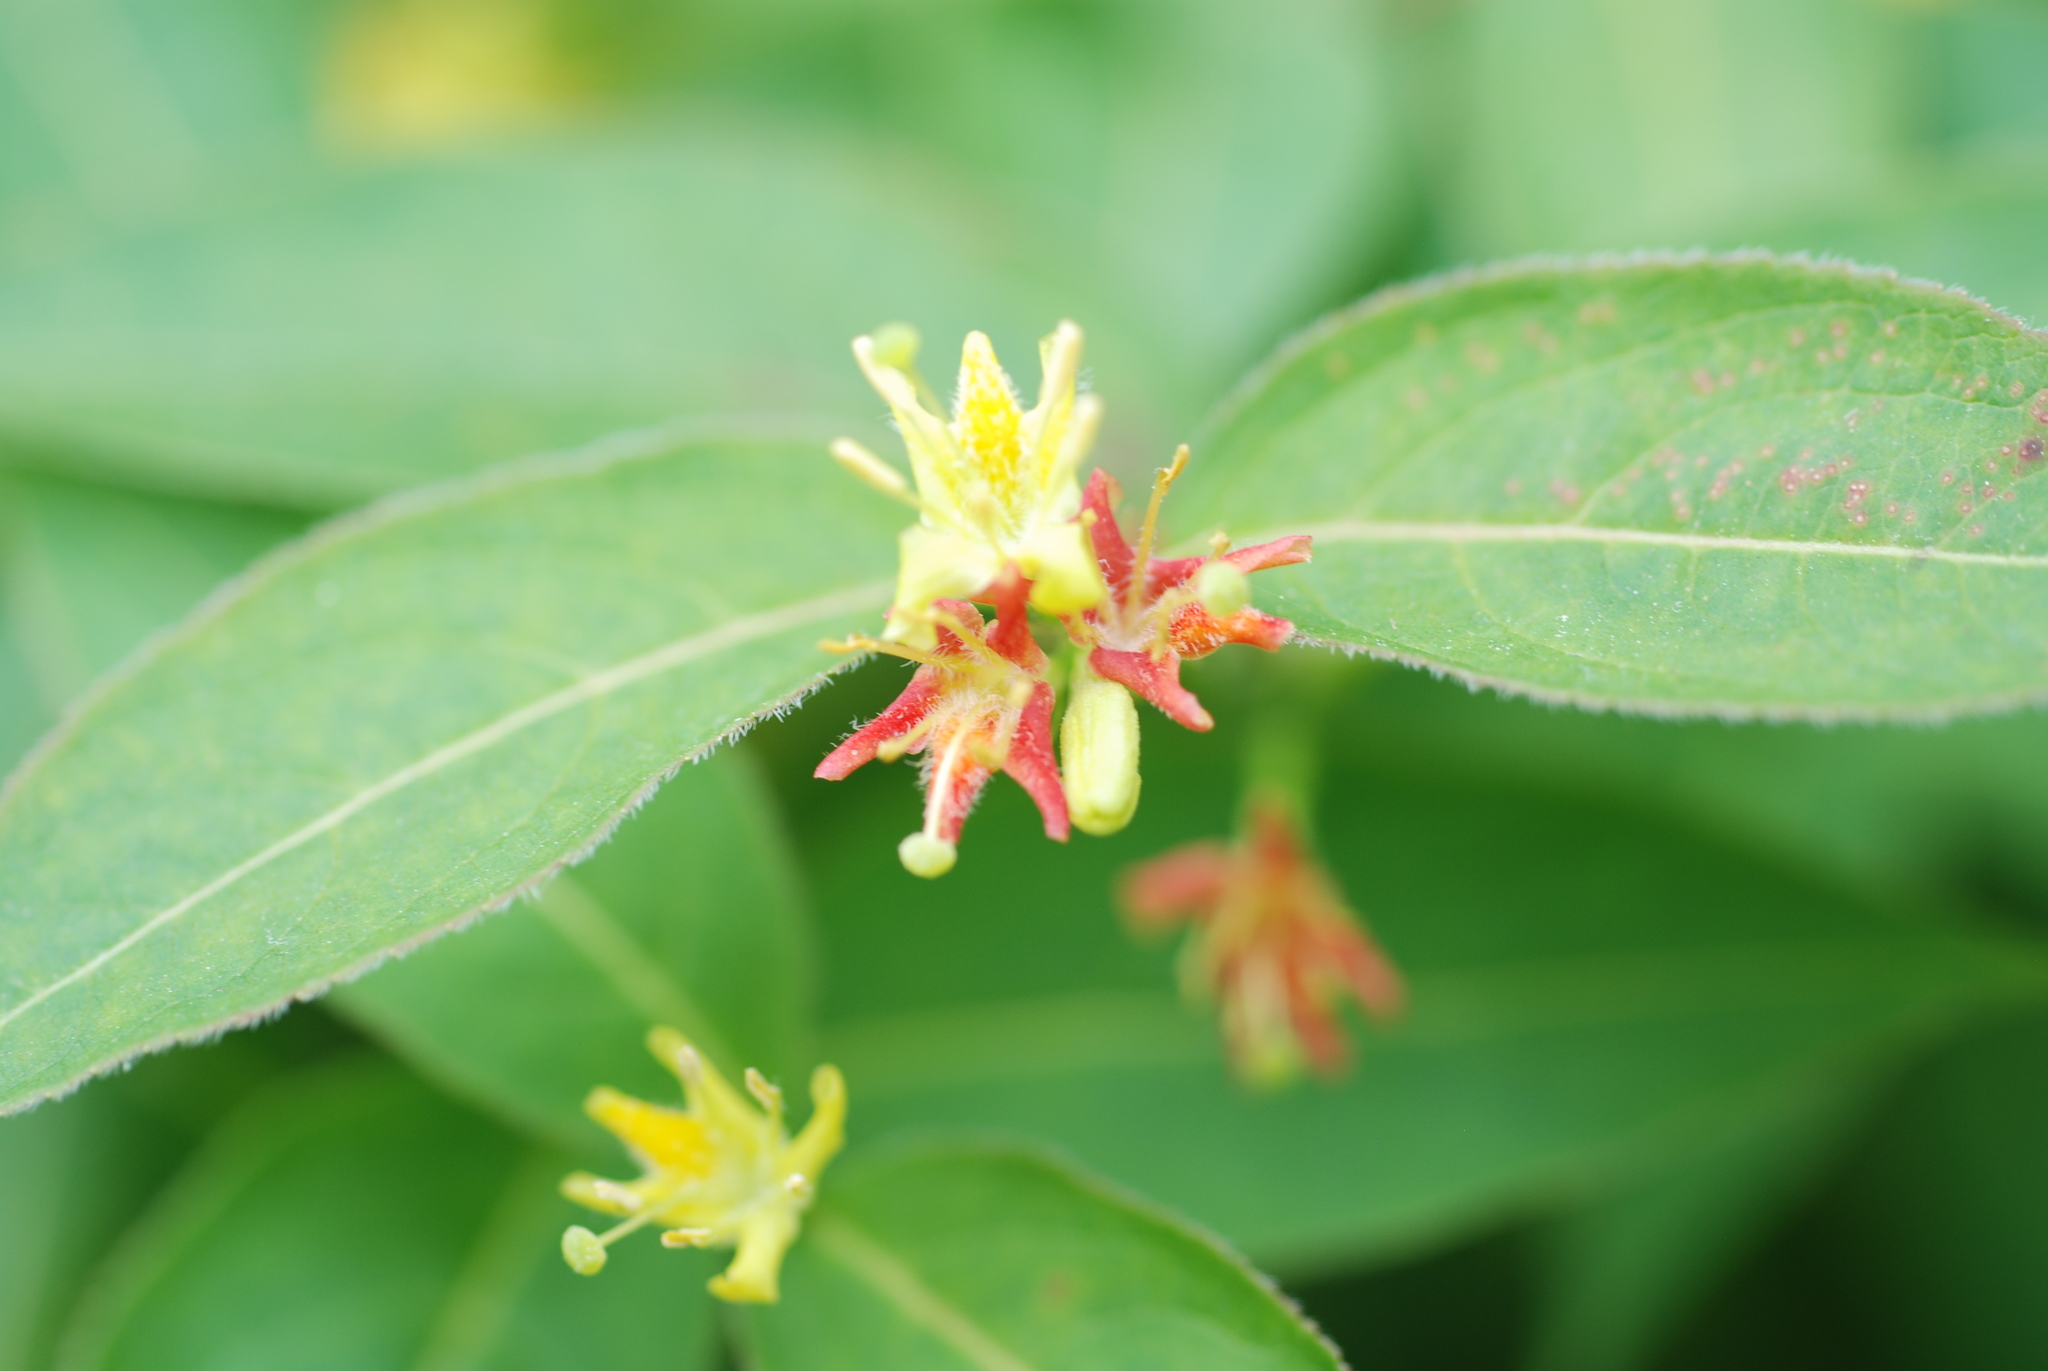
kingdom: Plantae
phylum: Tracheophyta
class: Magnoliopsida
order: Dipsacales
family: Caprifoliaceae
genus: Diervilla
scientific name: Diervilla lonicera
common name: Bush-honeysuckle
